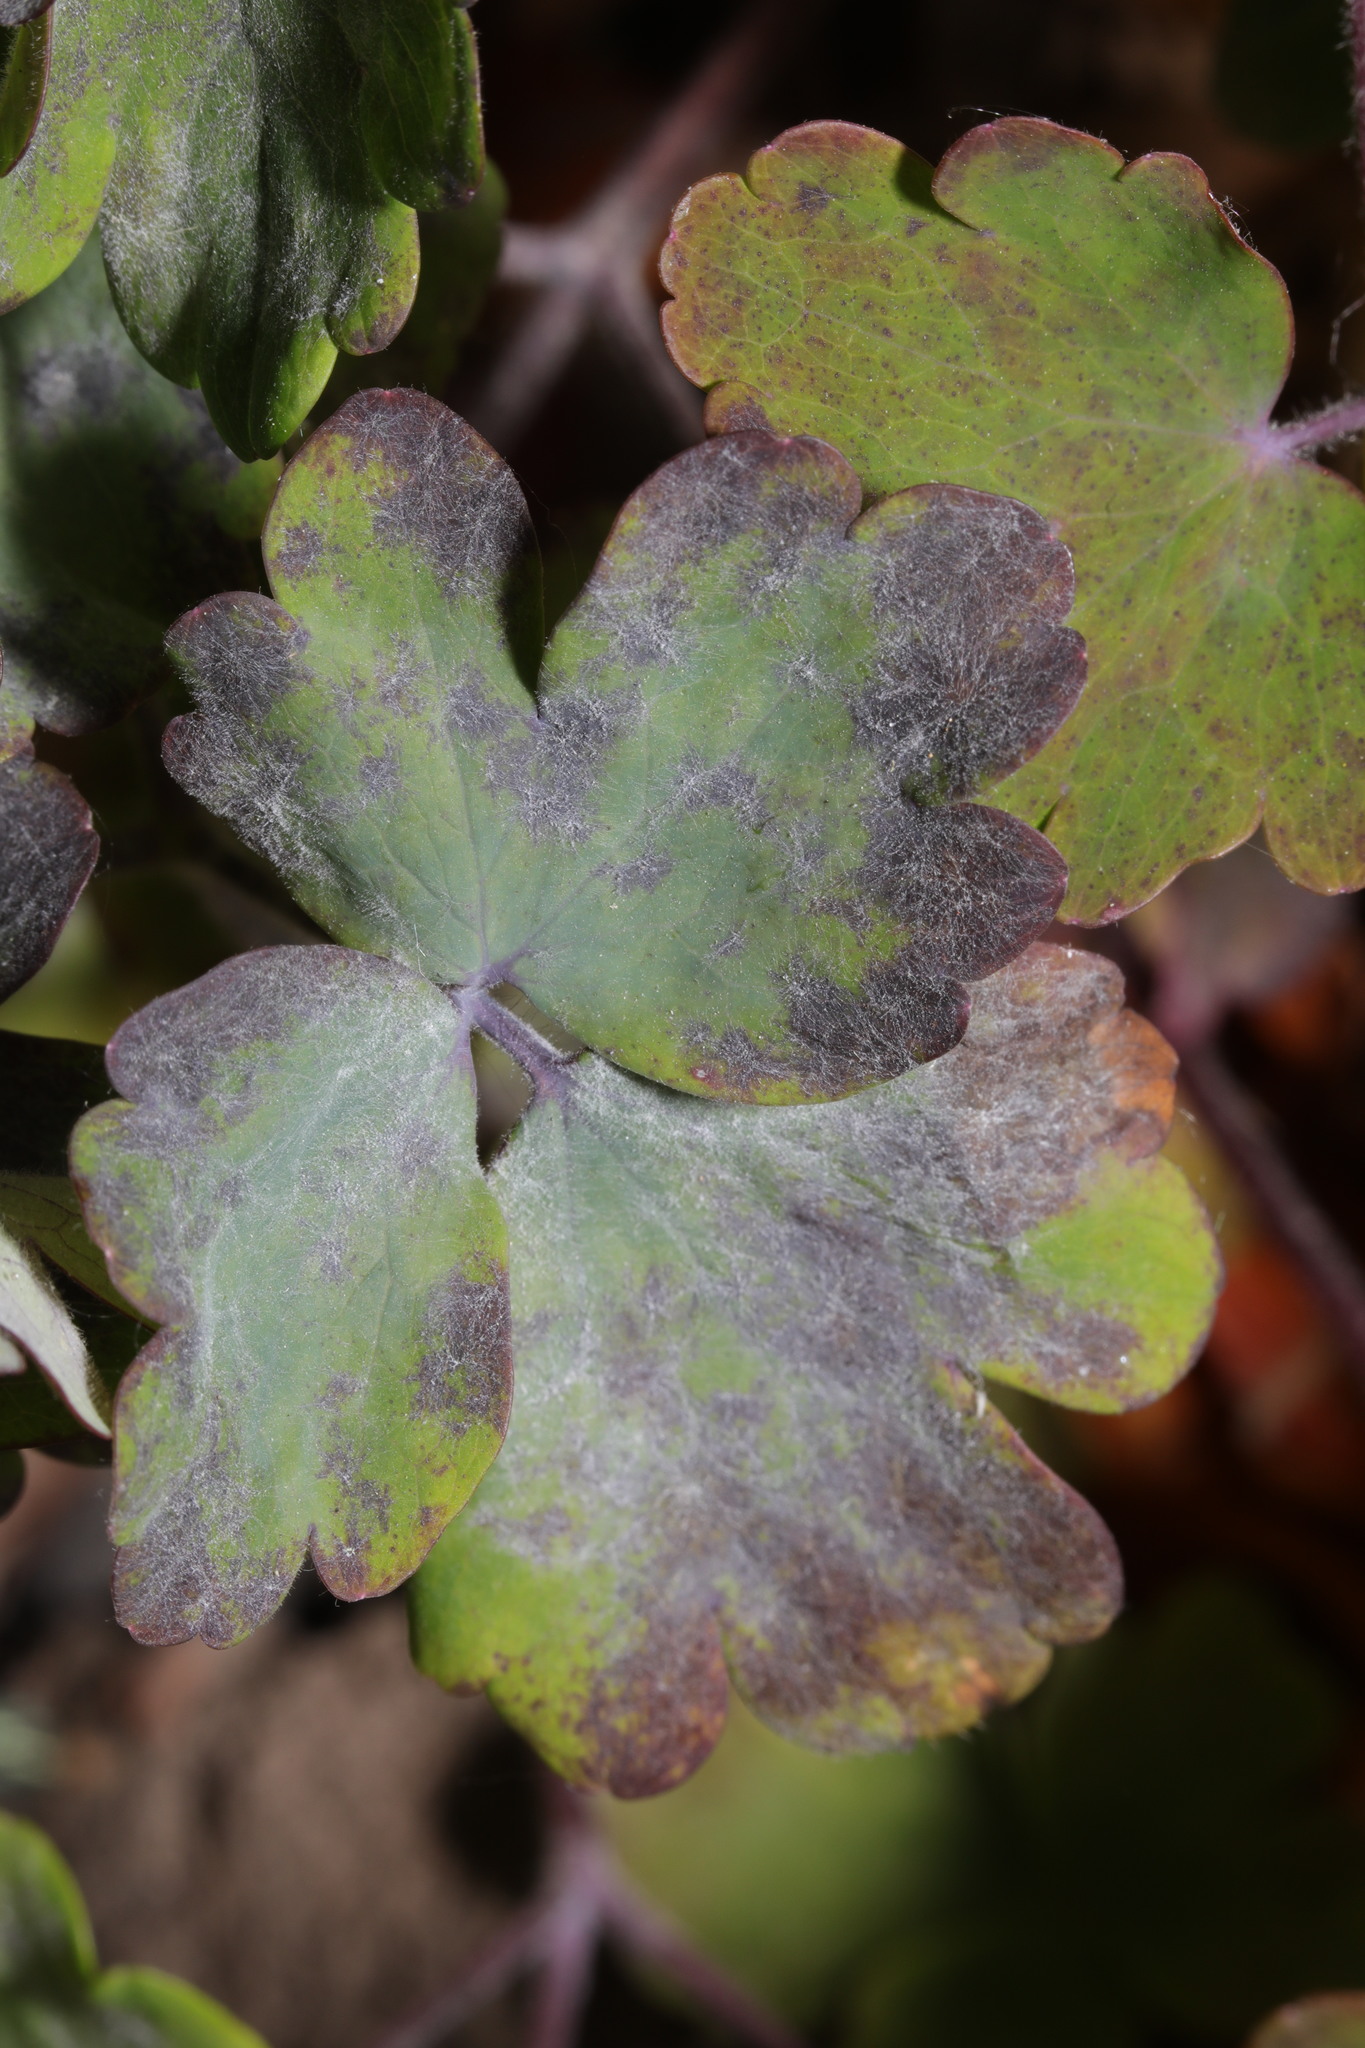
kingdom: Fungi
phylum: Ascomycota
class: Leotiomycetes
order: Helotiales
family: Erysiphaceae
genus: Erysiphe
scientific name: Erysiphe aquilegiae
